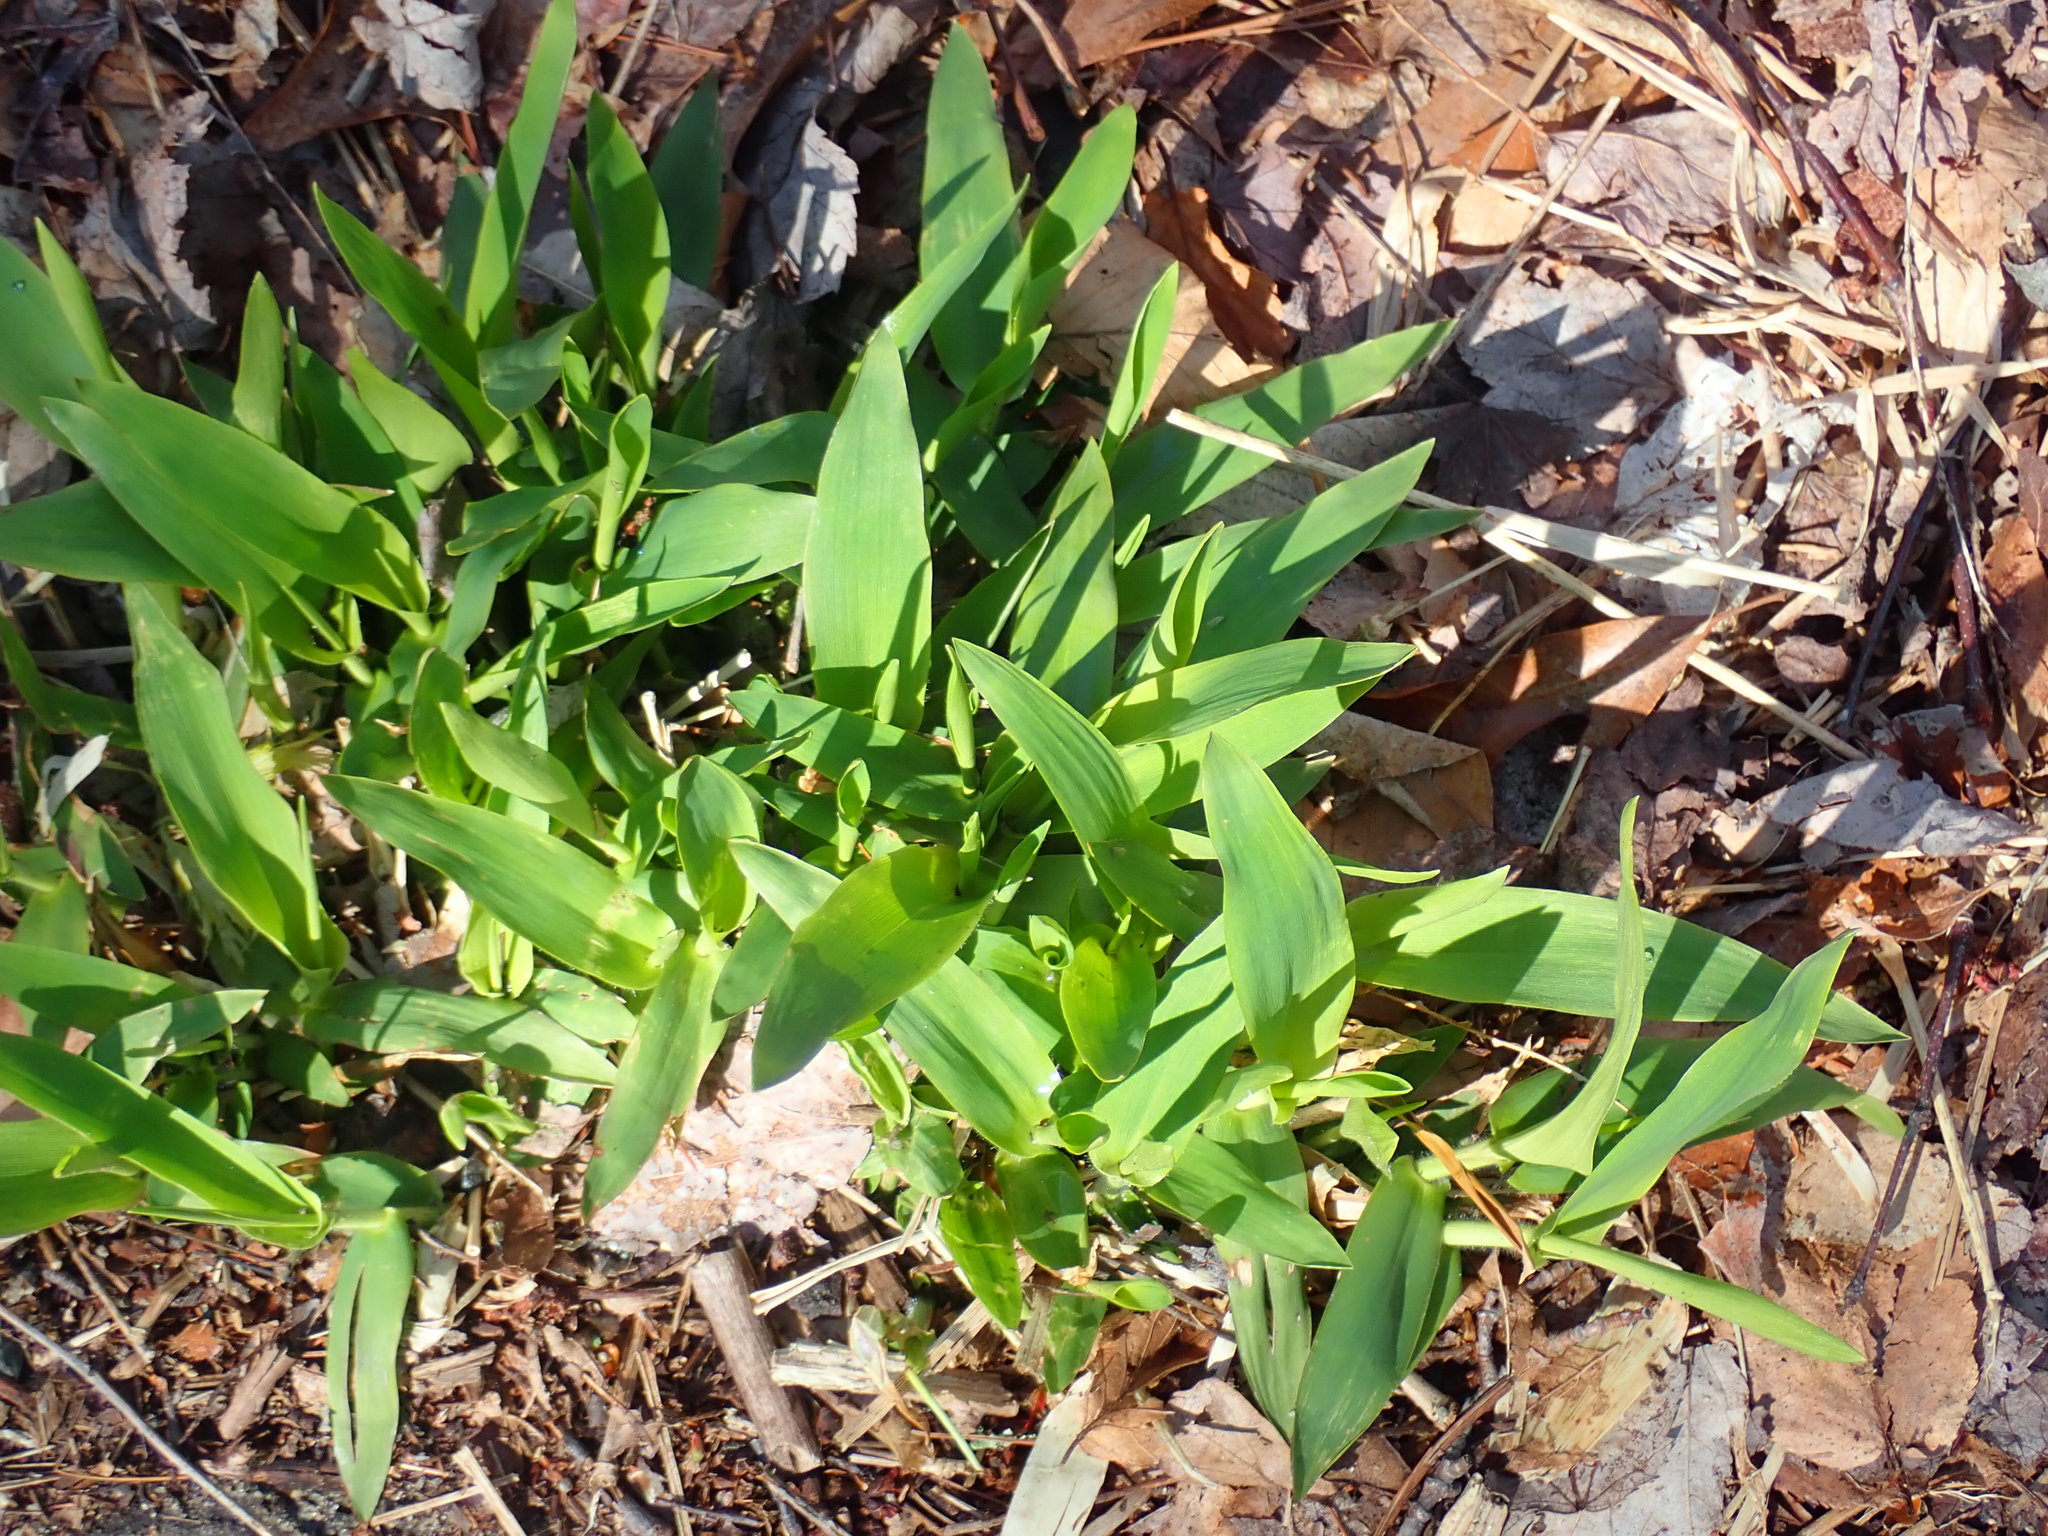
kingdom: Plantae
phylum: Tracheophyta
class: Liliopsida
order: Poales
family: Poaceae
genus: Dichanthelium
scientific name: Dichanthelium
